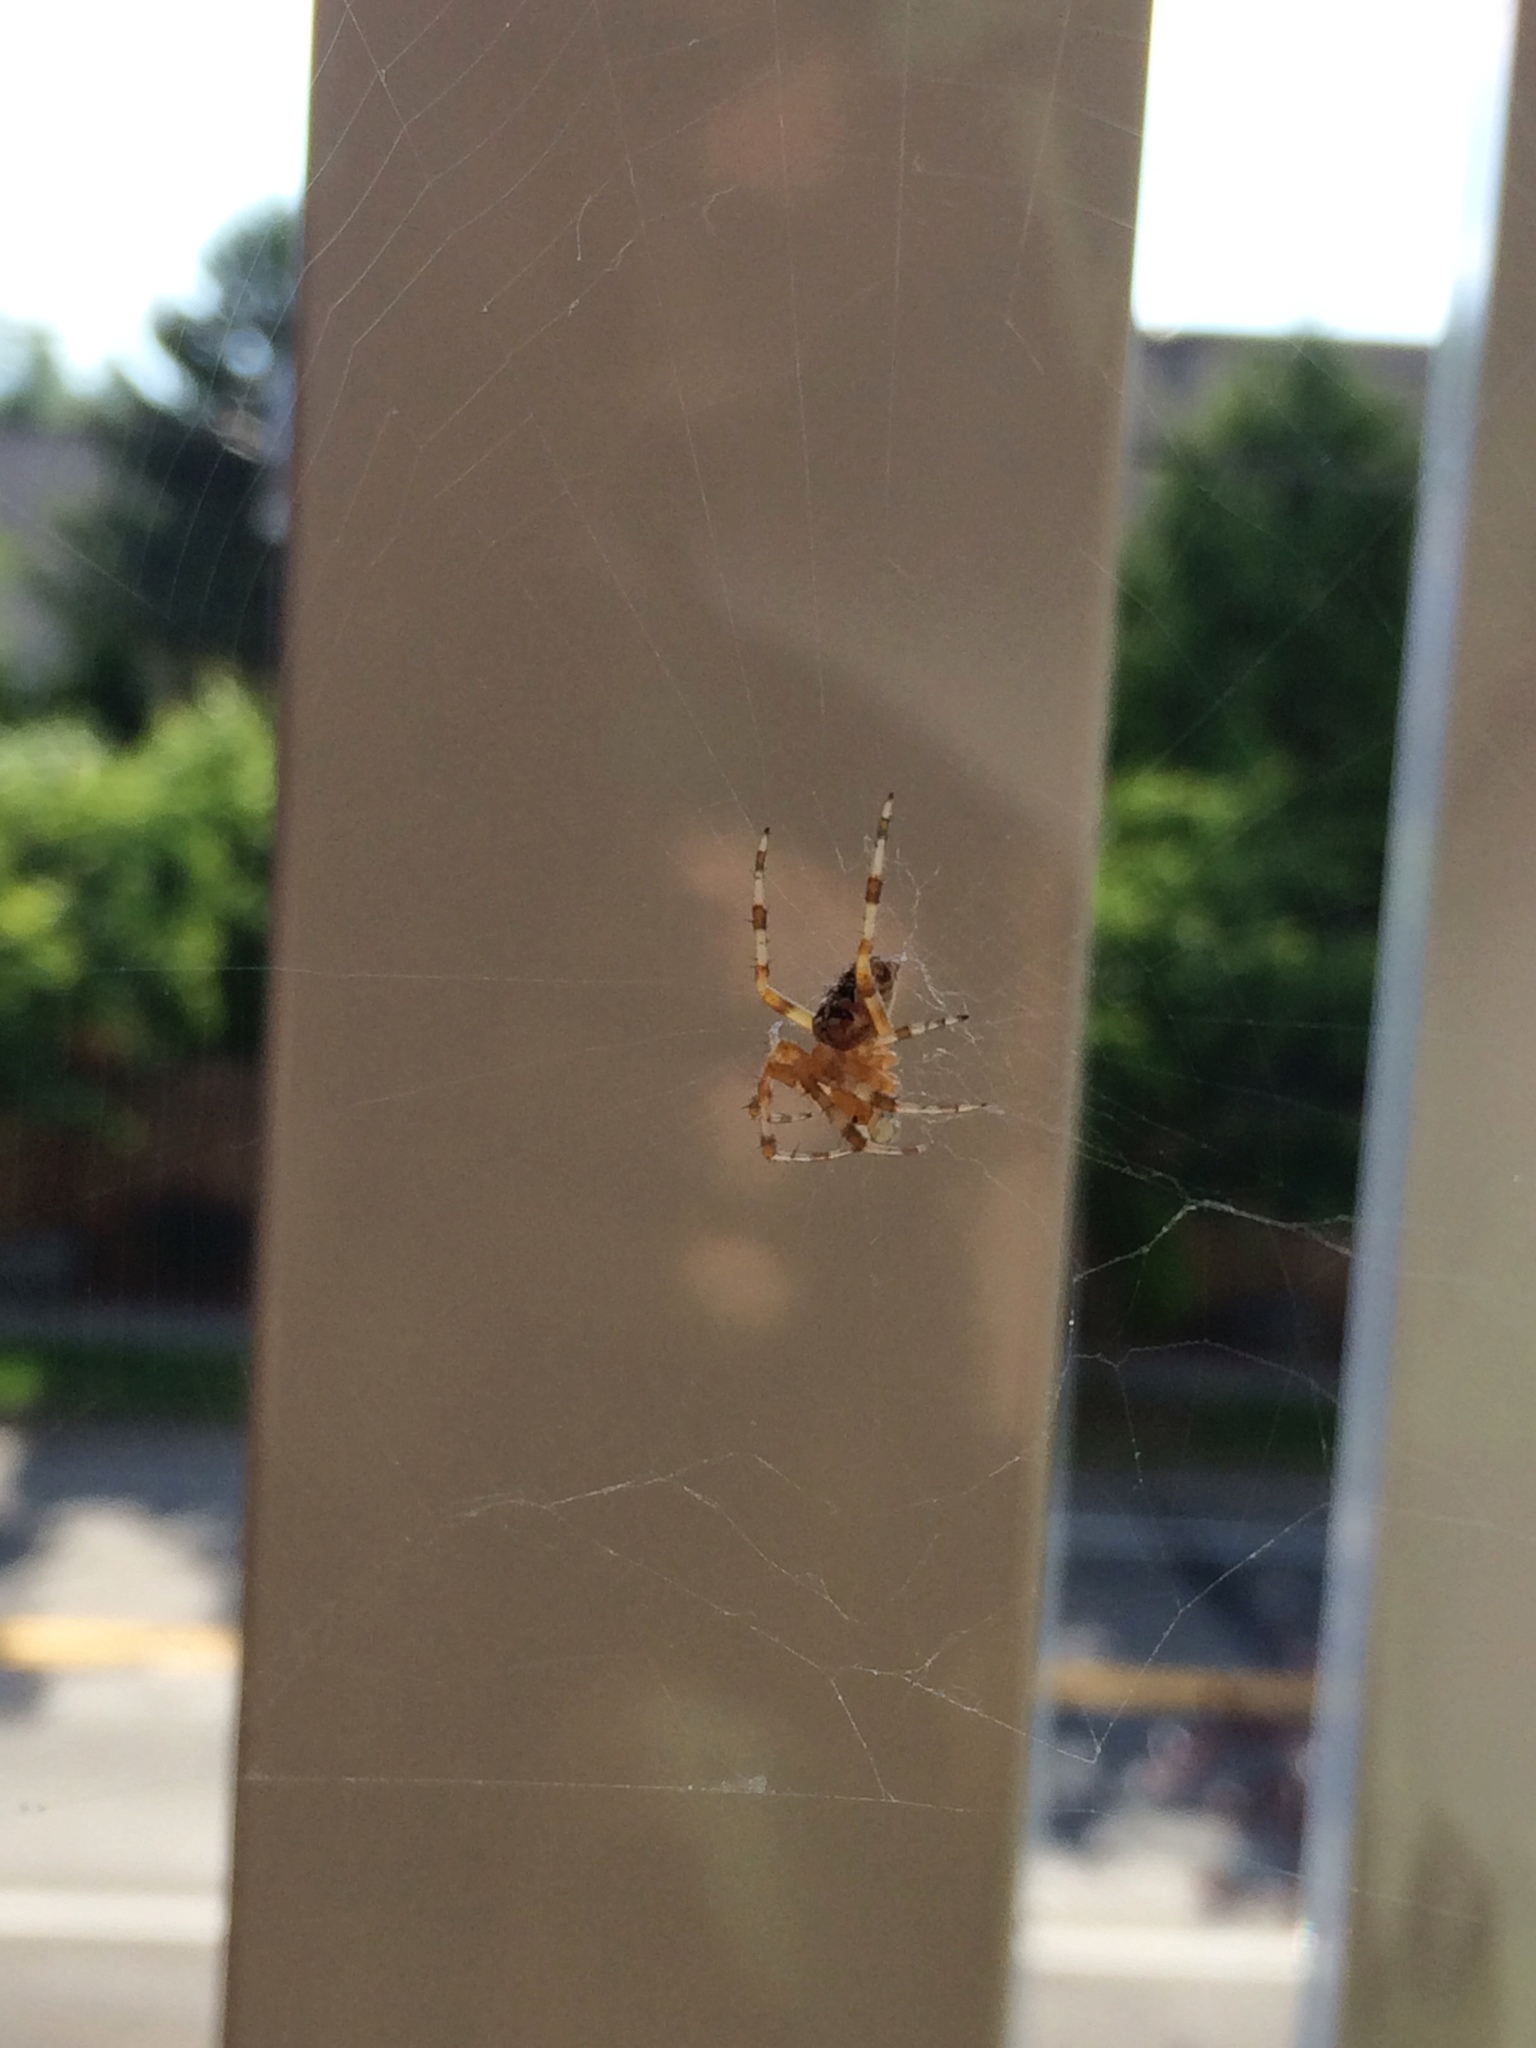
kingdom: Animalia
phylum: Arthropoda
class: Arachnida
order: Araneae
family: Araneidae
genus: Araneus
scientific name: Araneus diadematus
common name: Cross orbweaver
